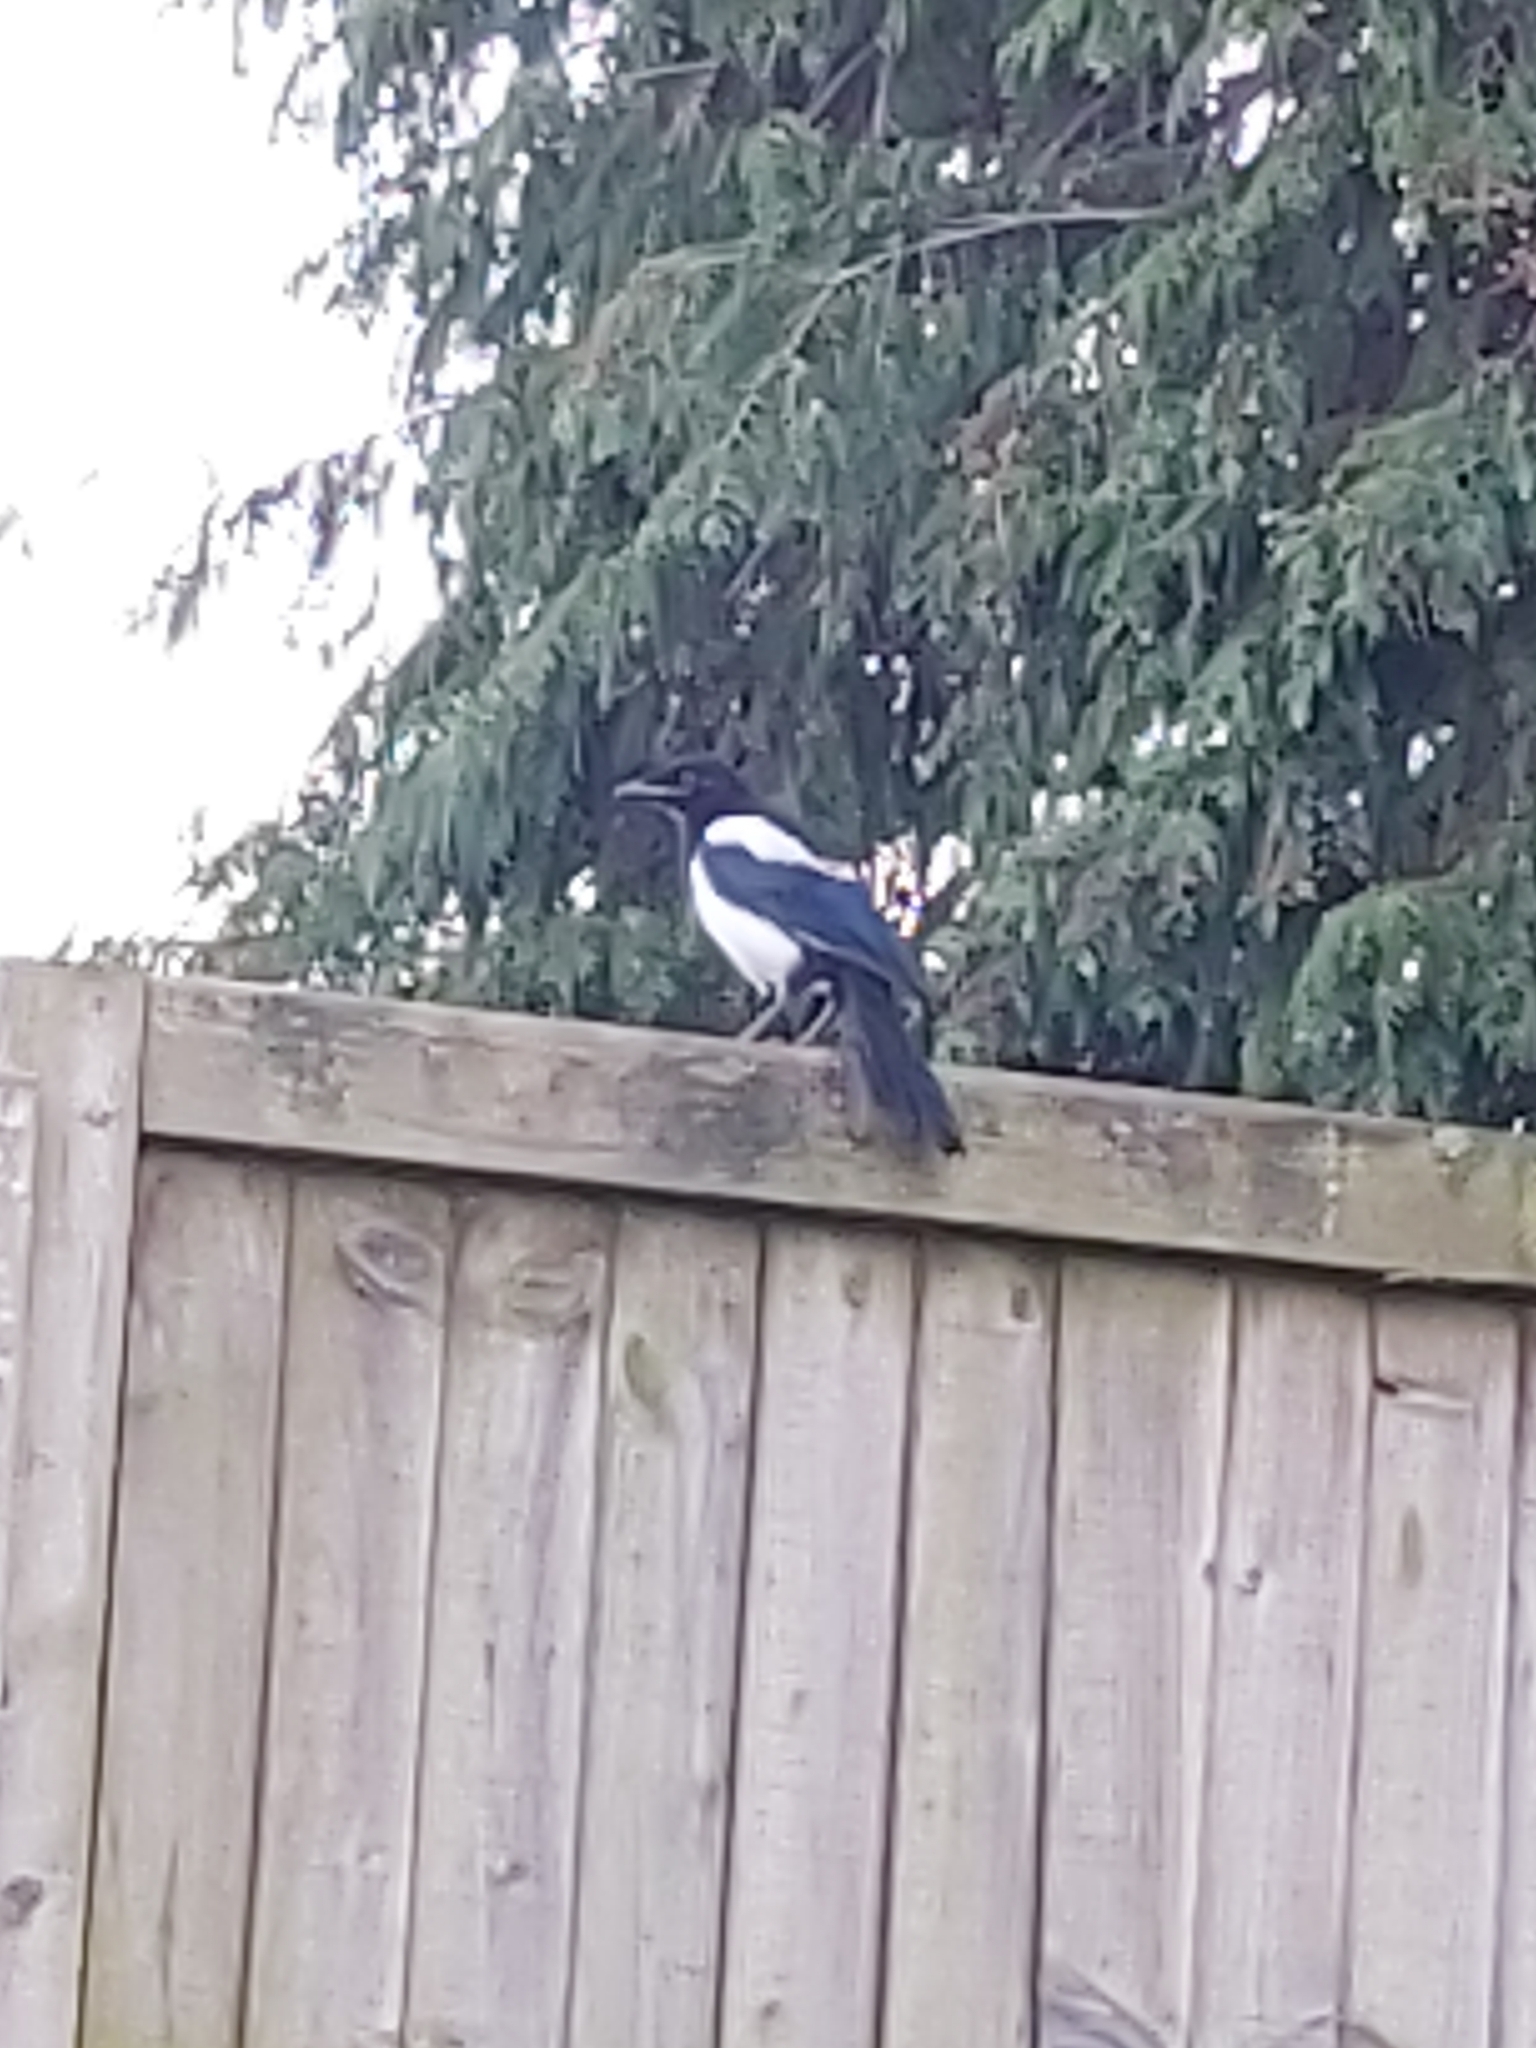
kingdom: Animalia
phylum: Chordata
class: Aves
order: Passeriformes
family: Corvidae
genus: Pica
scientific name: Pica pica
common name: Eurasian magpie
